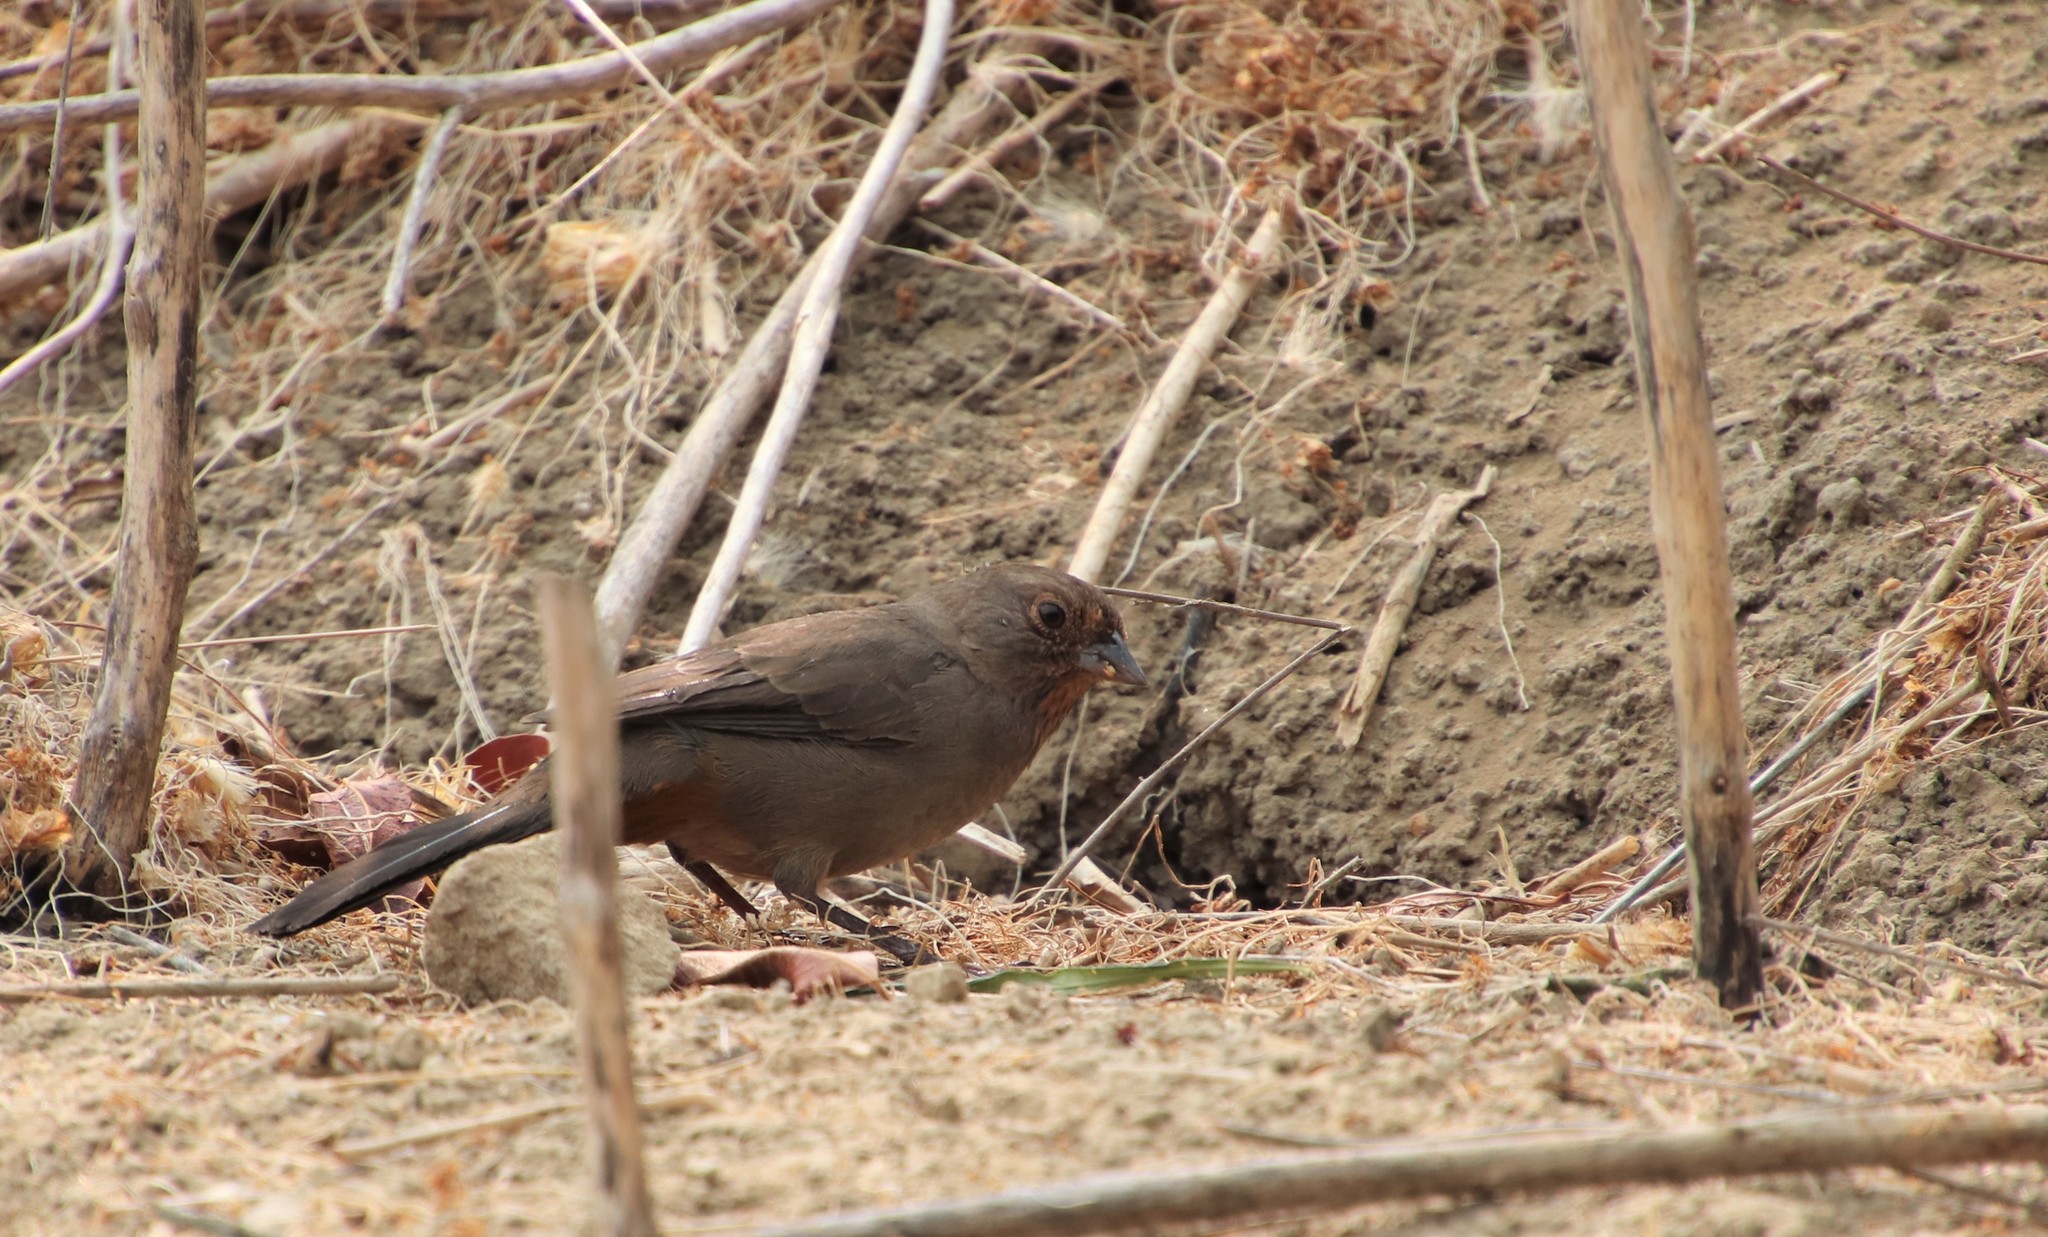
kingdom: Animalia
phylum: Chordata
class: Aves
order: Passeriformes
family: Passerellidae
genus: Melozone
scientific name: Melozone crissalis
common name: California towhee
